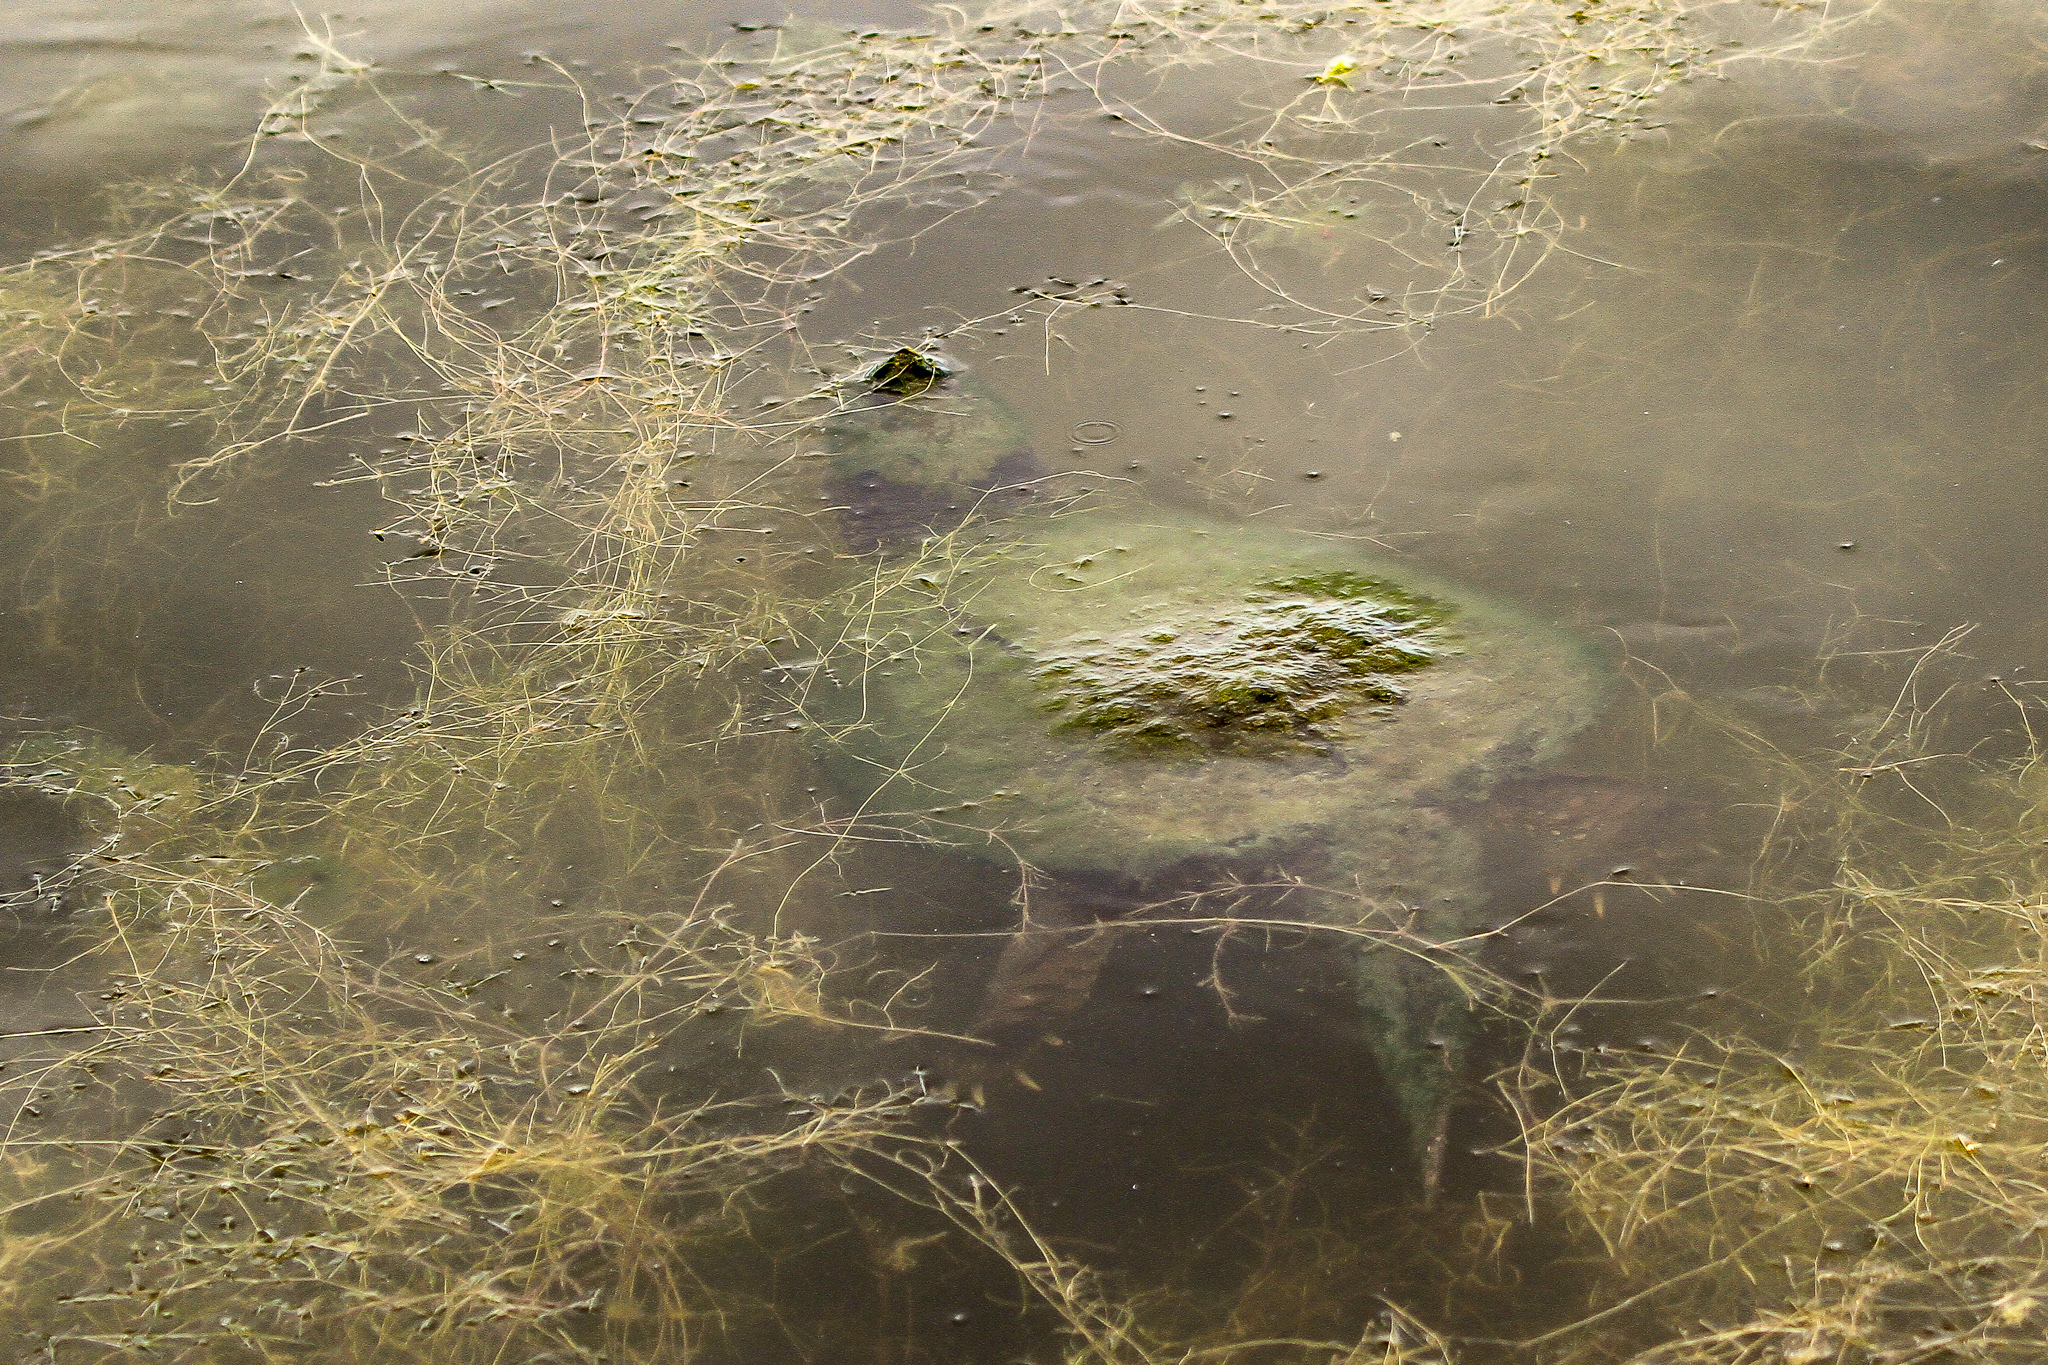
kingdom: Animalia
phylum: Chordata
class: Testudines
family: Chelydridae
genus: Chelydra
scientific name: Chelydra serpentina
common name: Common snapping turtle
